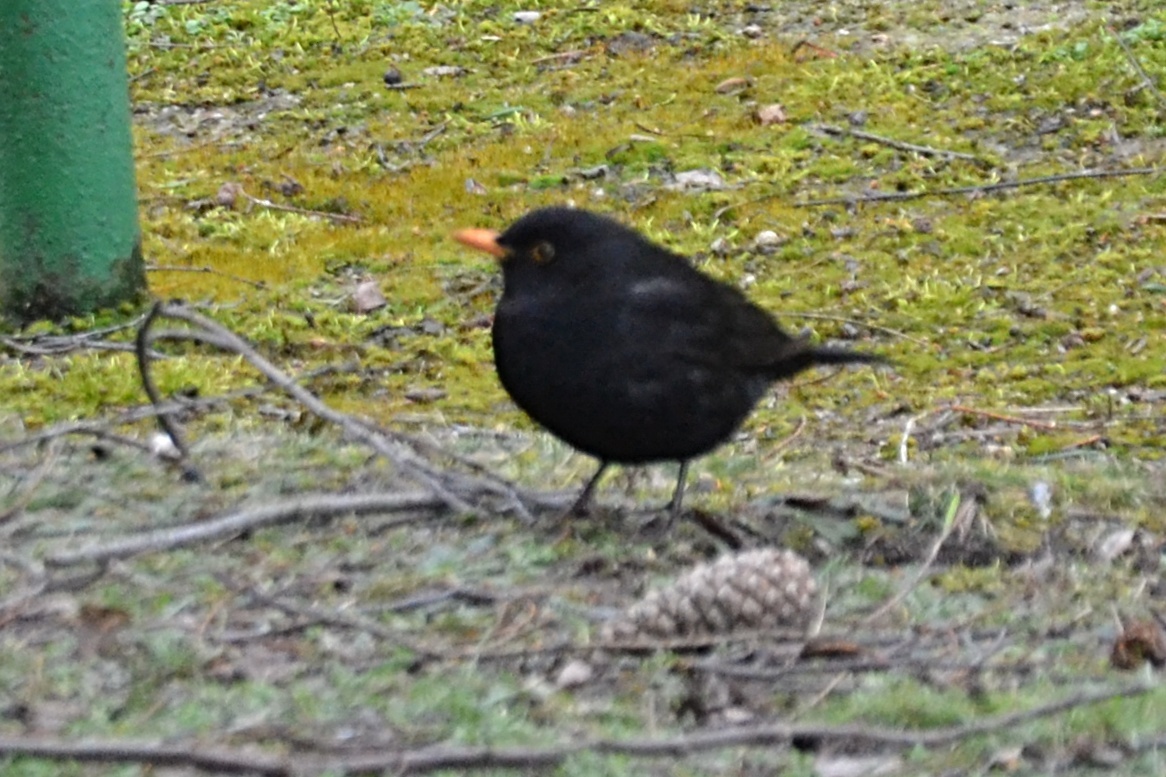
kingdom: Animalia
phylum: Chordata
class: Aves
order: Passeriformes
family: Turdidae
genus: Turdus
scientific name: Turdus merula
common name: Common blackbird
